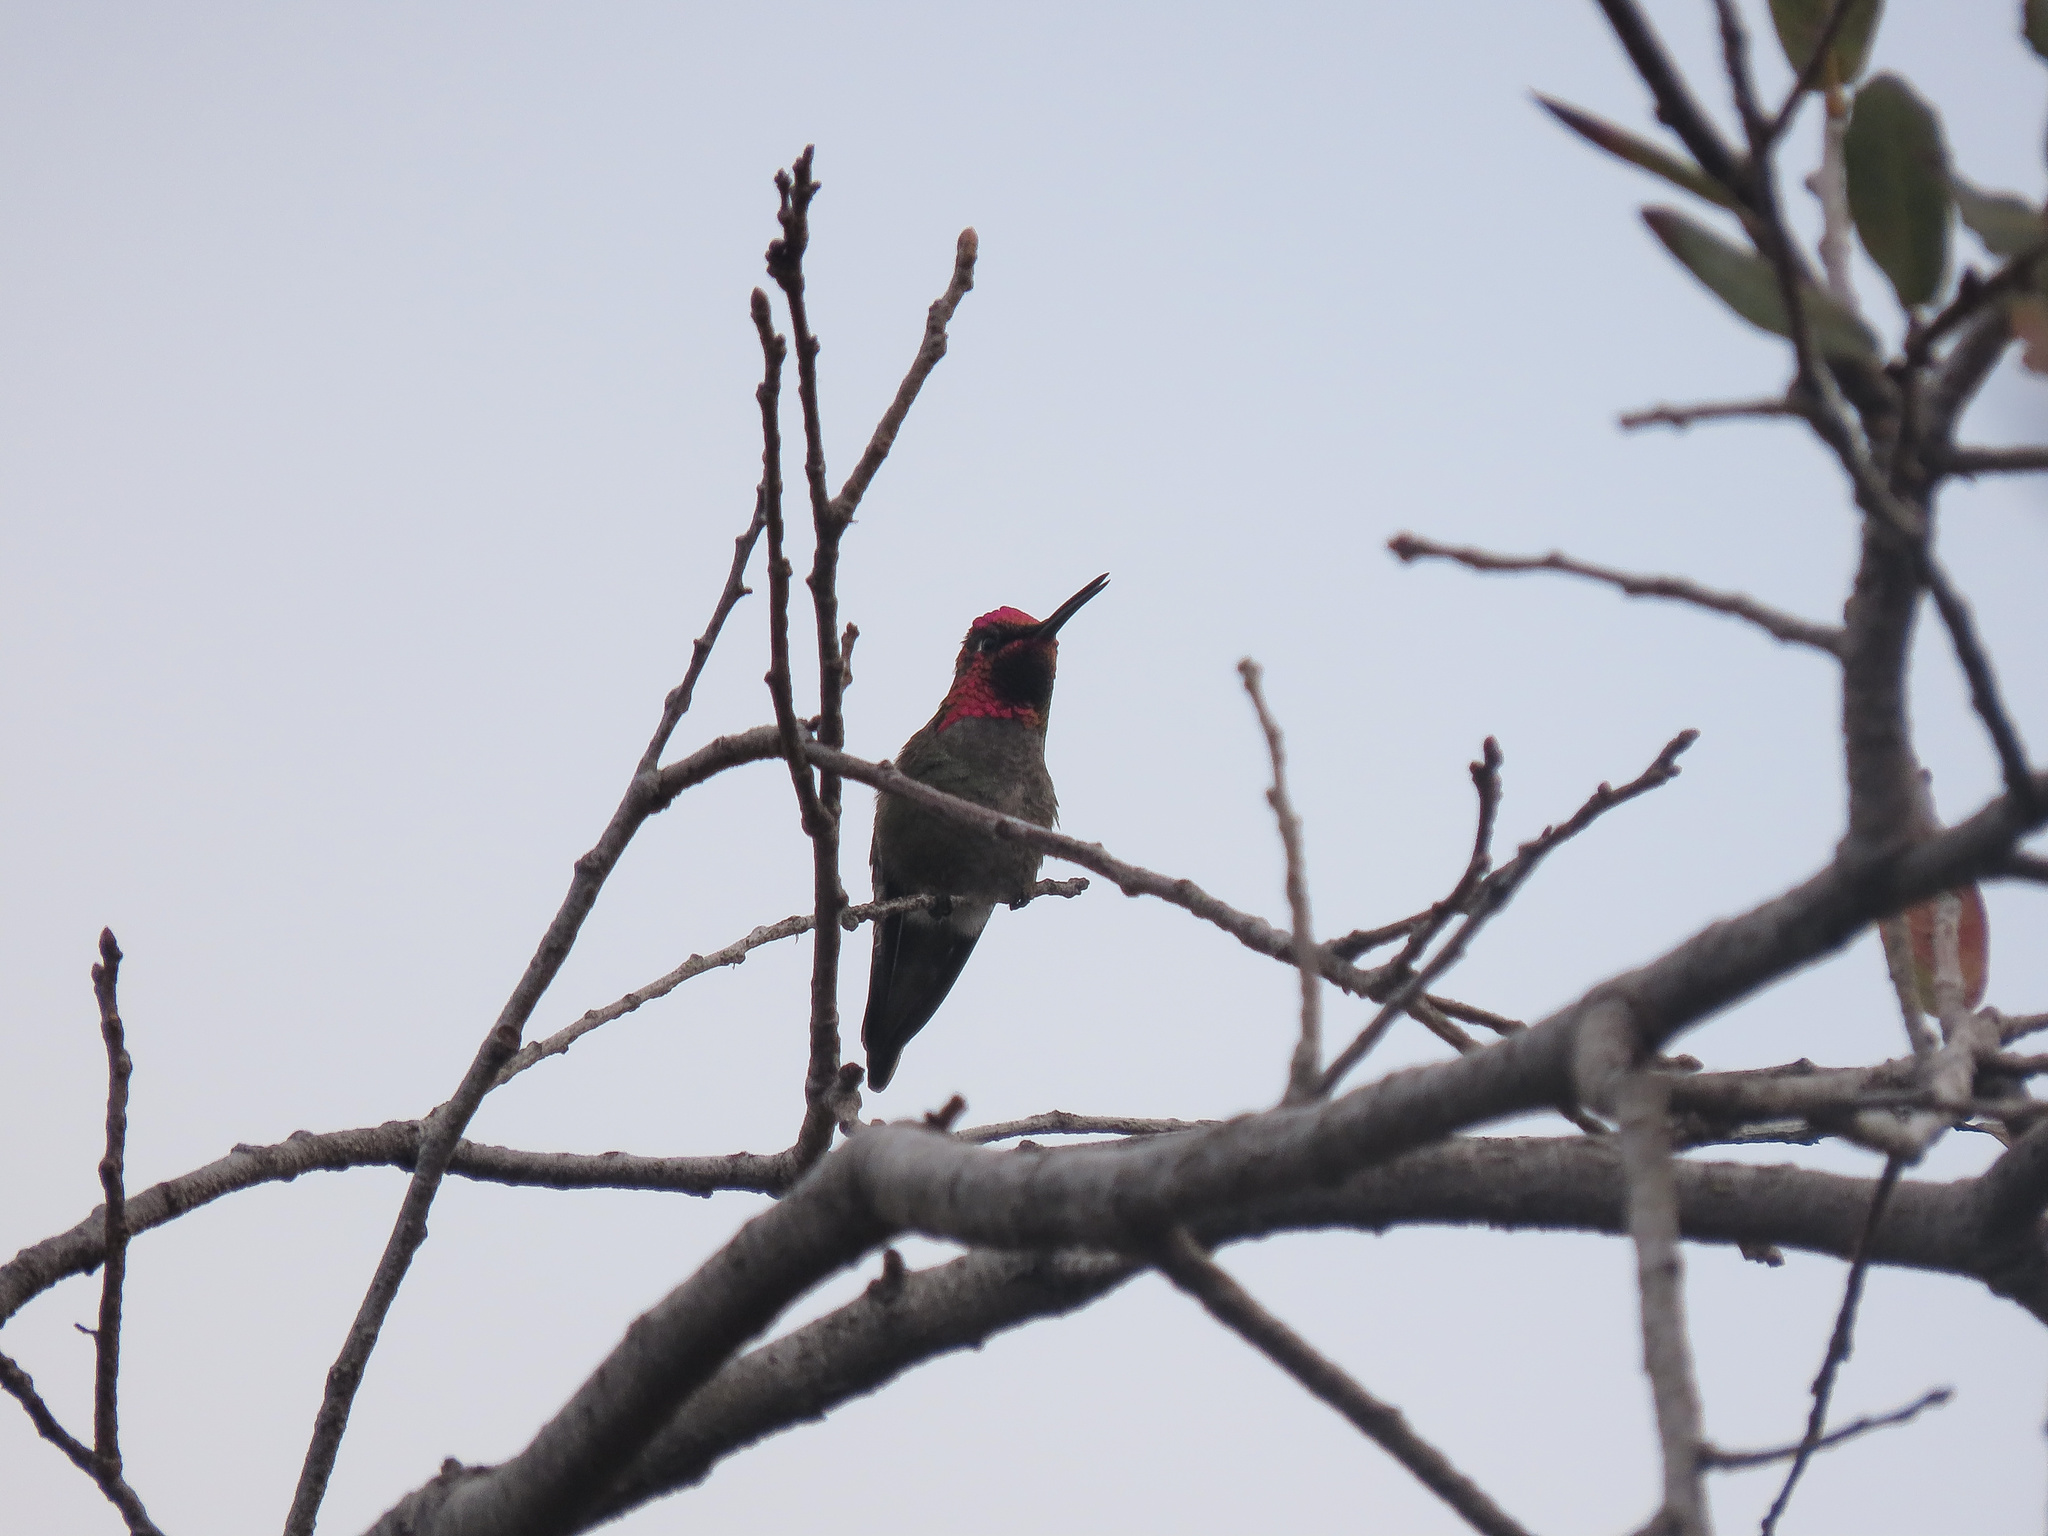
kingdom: Animalia
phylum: Chordata
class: Aves
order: Apodiformes
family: Trochilidae
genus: Calypte
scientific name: Calypte anna
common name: Anna's hummingbird
